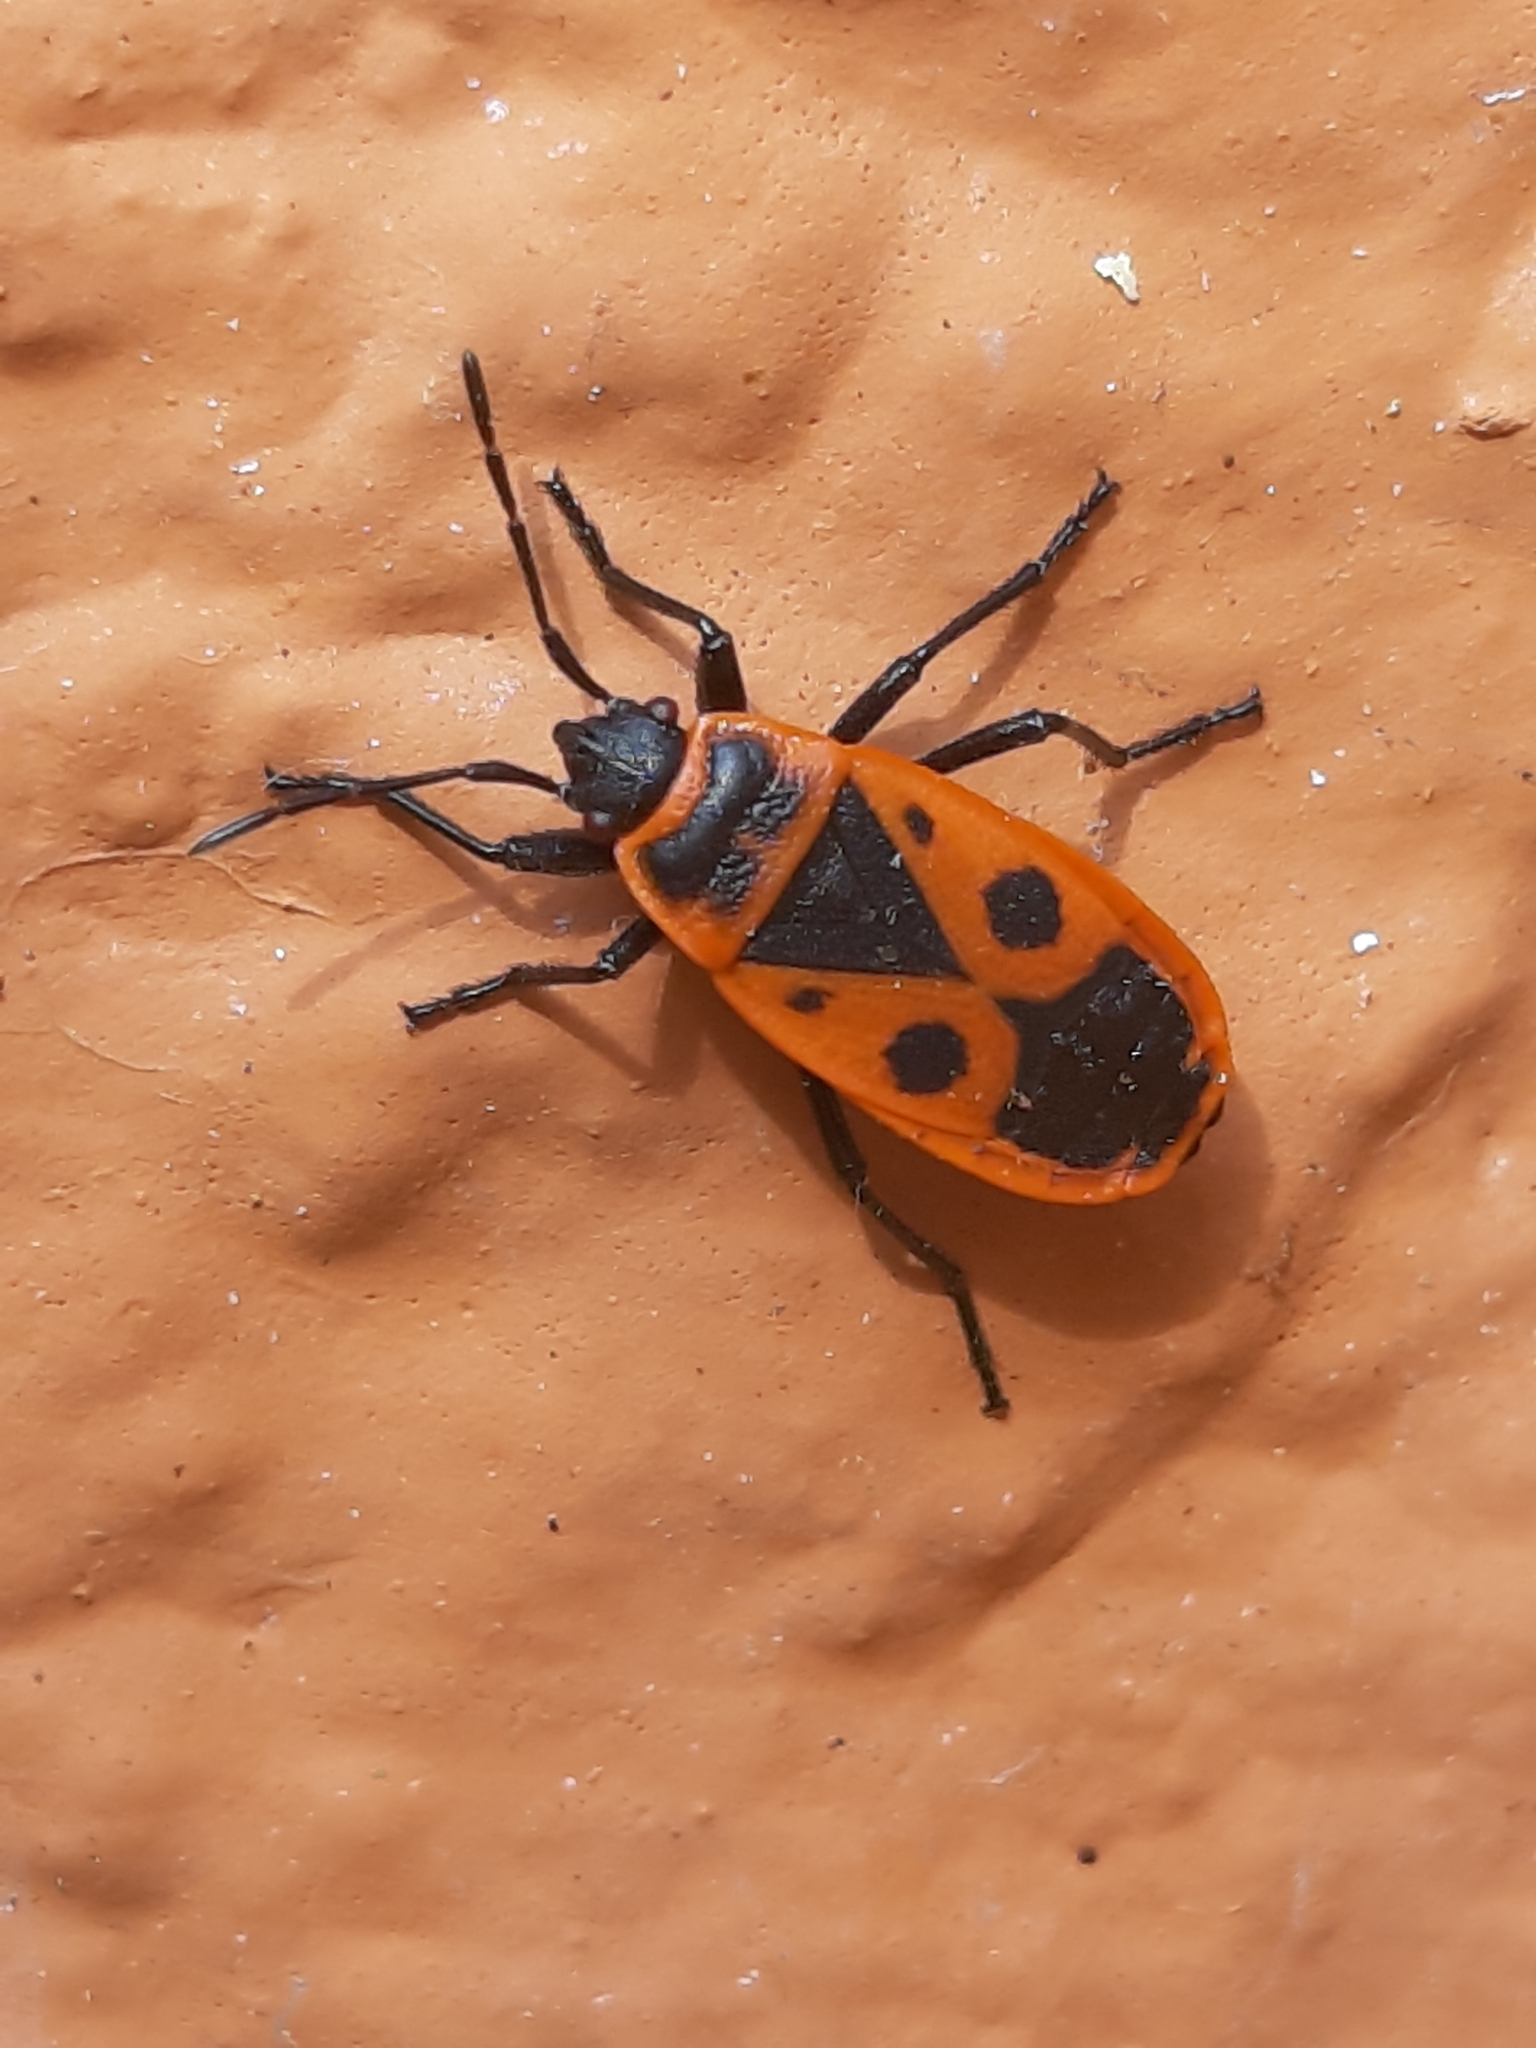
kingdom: Animalia
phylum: Arthropoda
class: Insecta
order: Hemiptera
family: Pyrrhocoridae
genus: Pyrrhocoris
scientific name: Pyrrhocoris apterus
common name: Firebug
